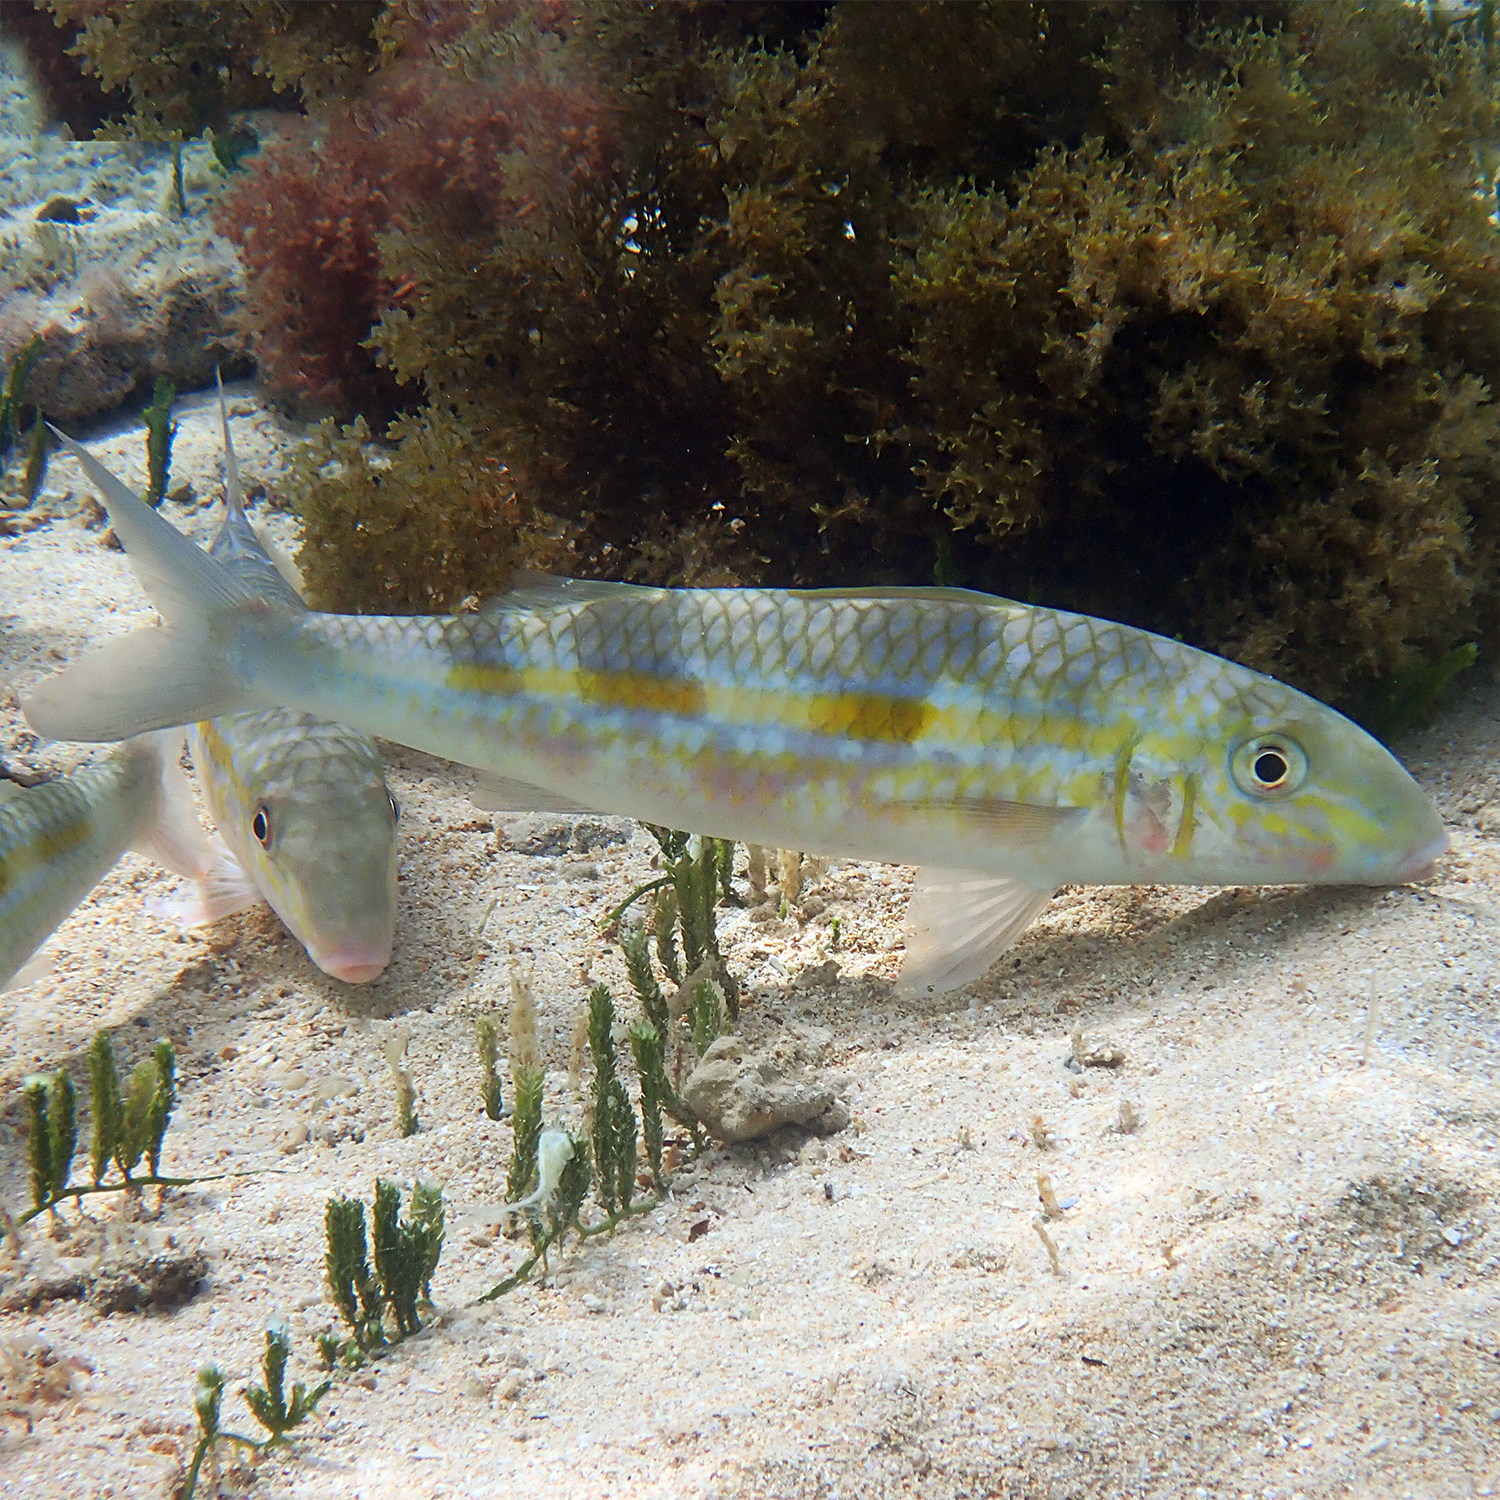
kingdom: Animalia
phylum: Chordata
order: Perciformes
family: Mullidae
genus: Mulloidichthys
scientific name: Mulloidichthys flavolineatus
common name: Yellowstripe goatfish
